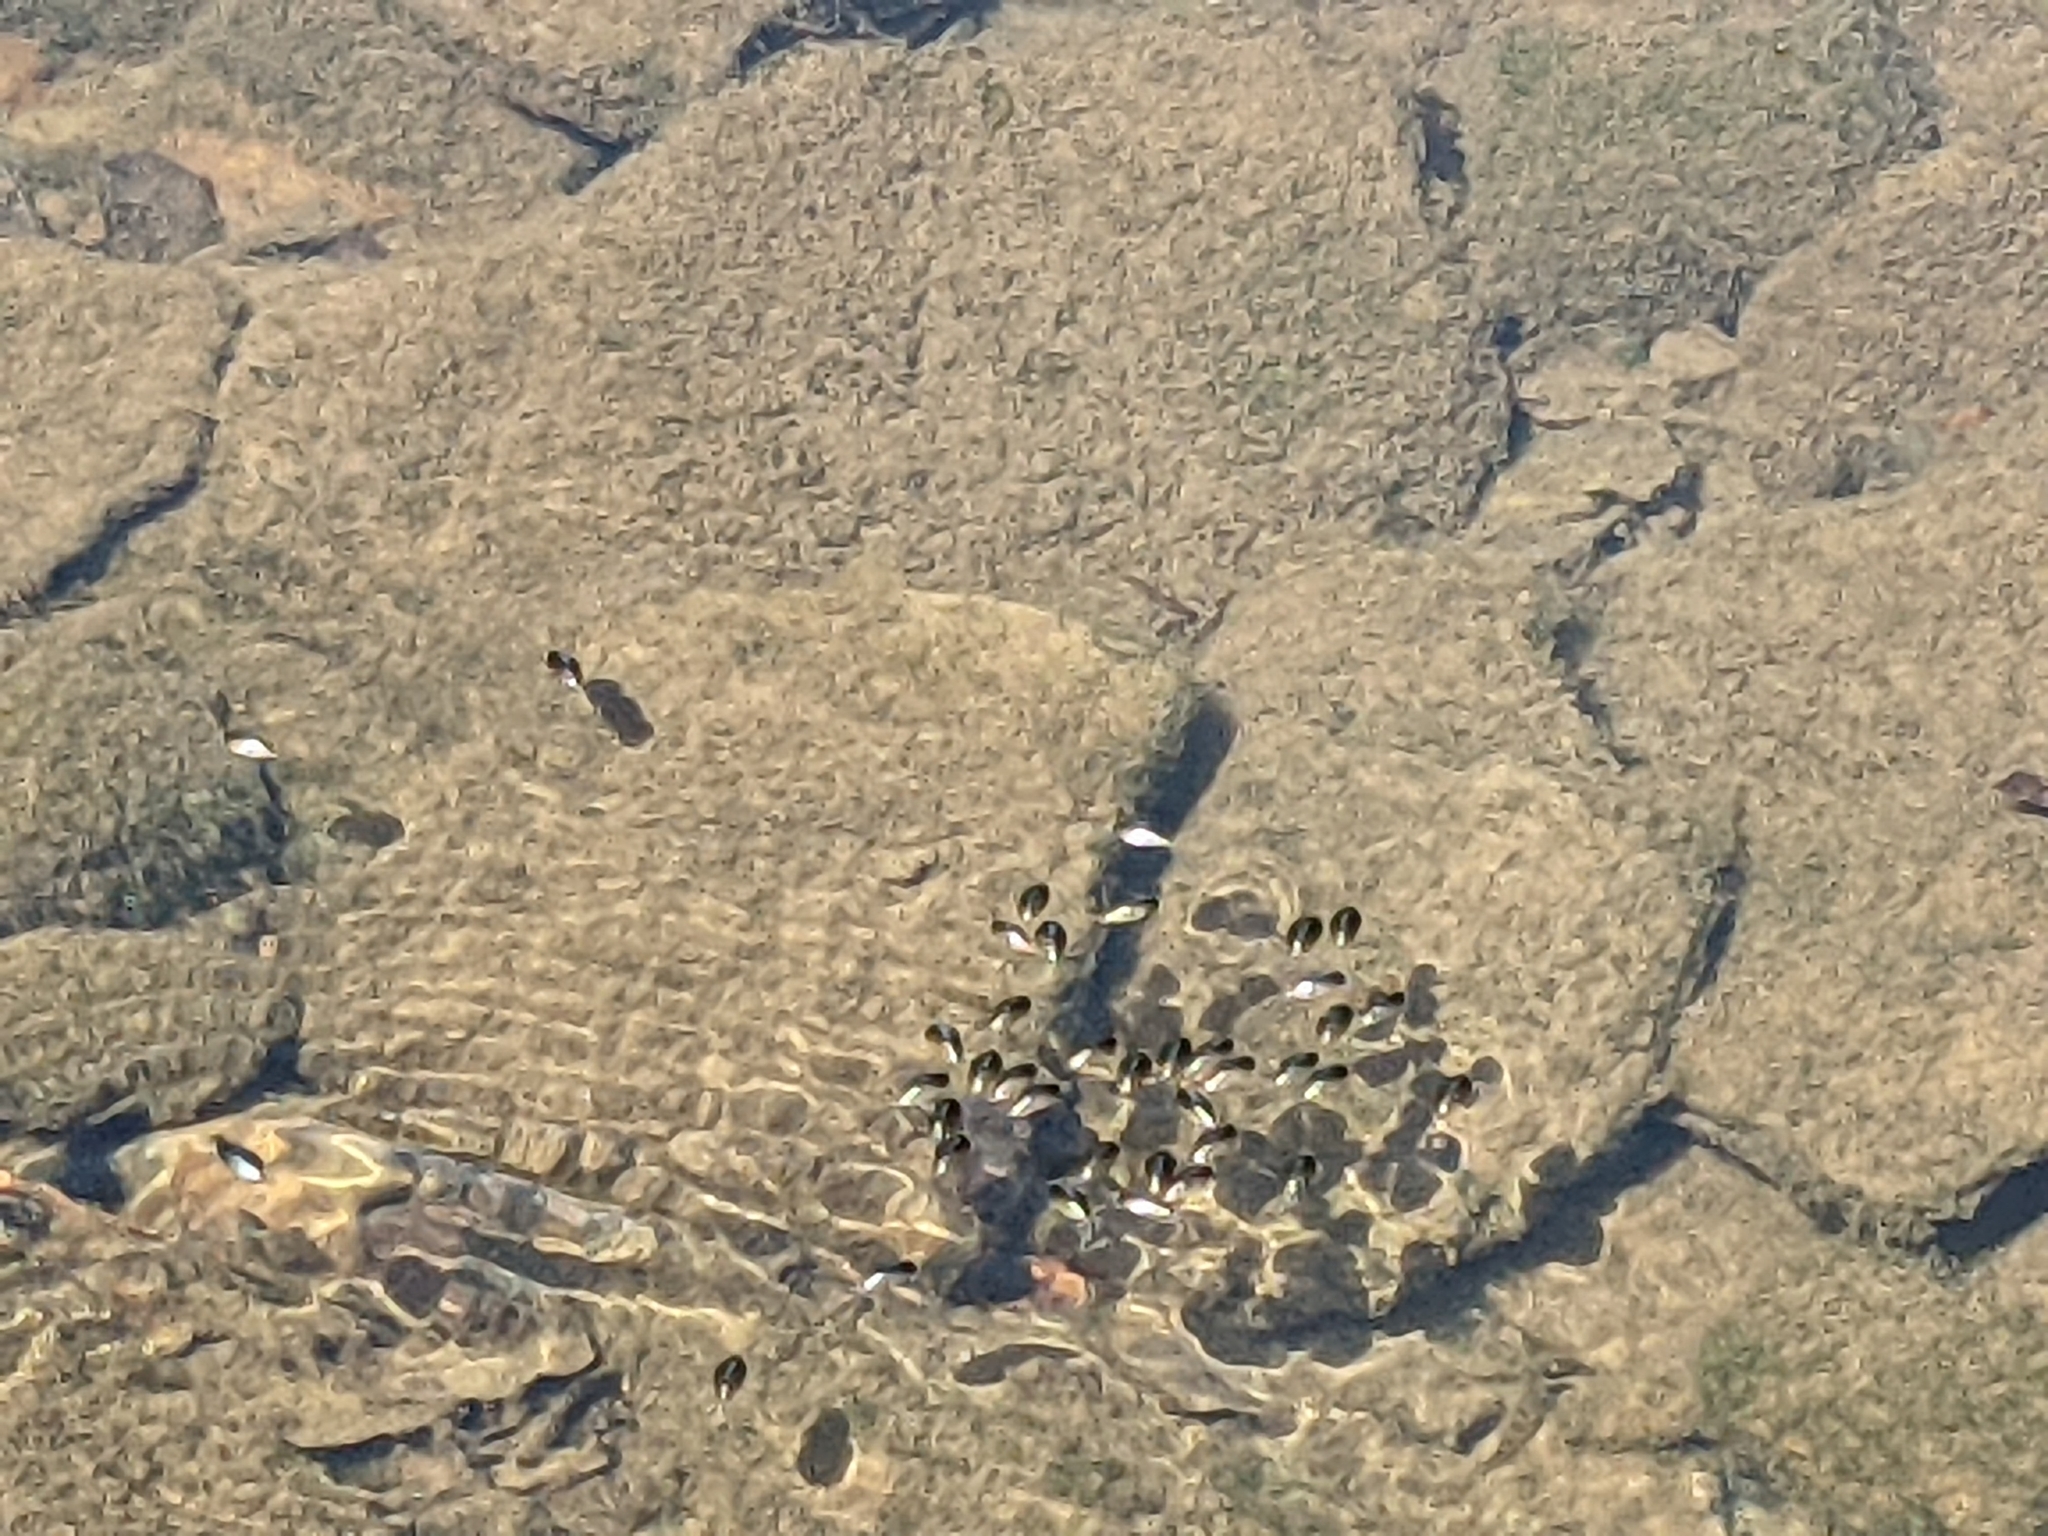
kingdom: Animalia
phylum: Arthropoda
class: Insecta
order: Coleoptera
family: Gyrinidae
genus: Dineutus
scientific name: Dineutus
